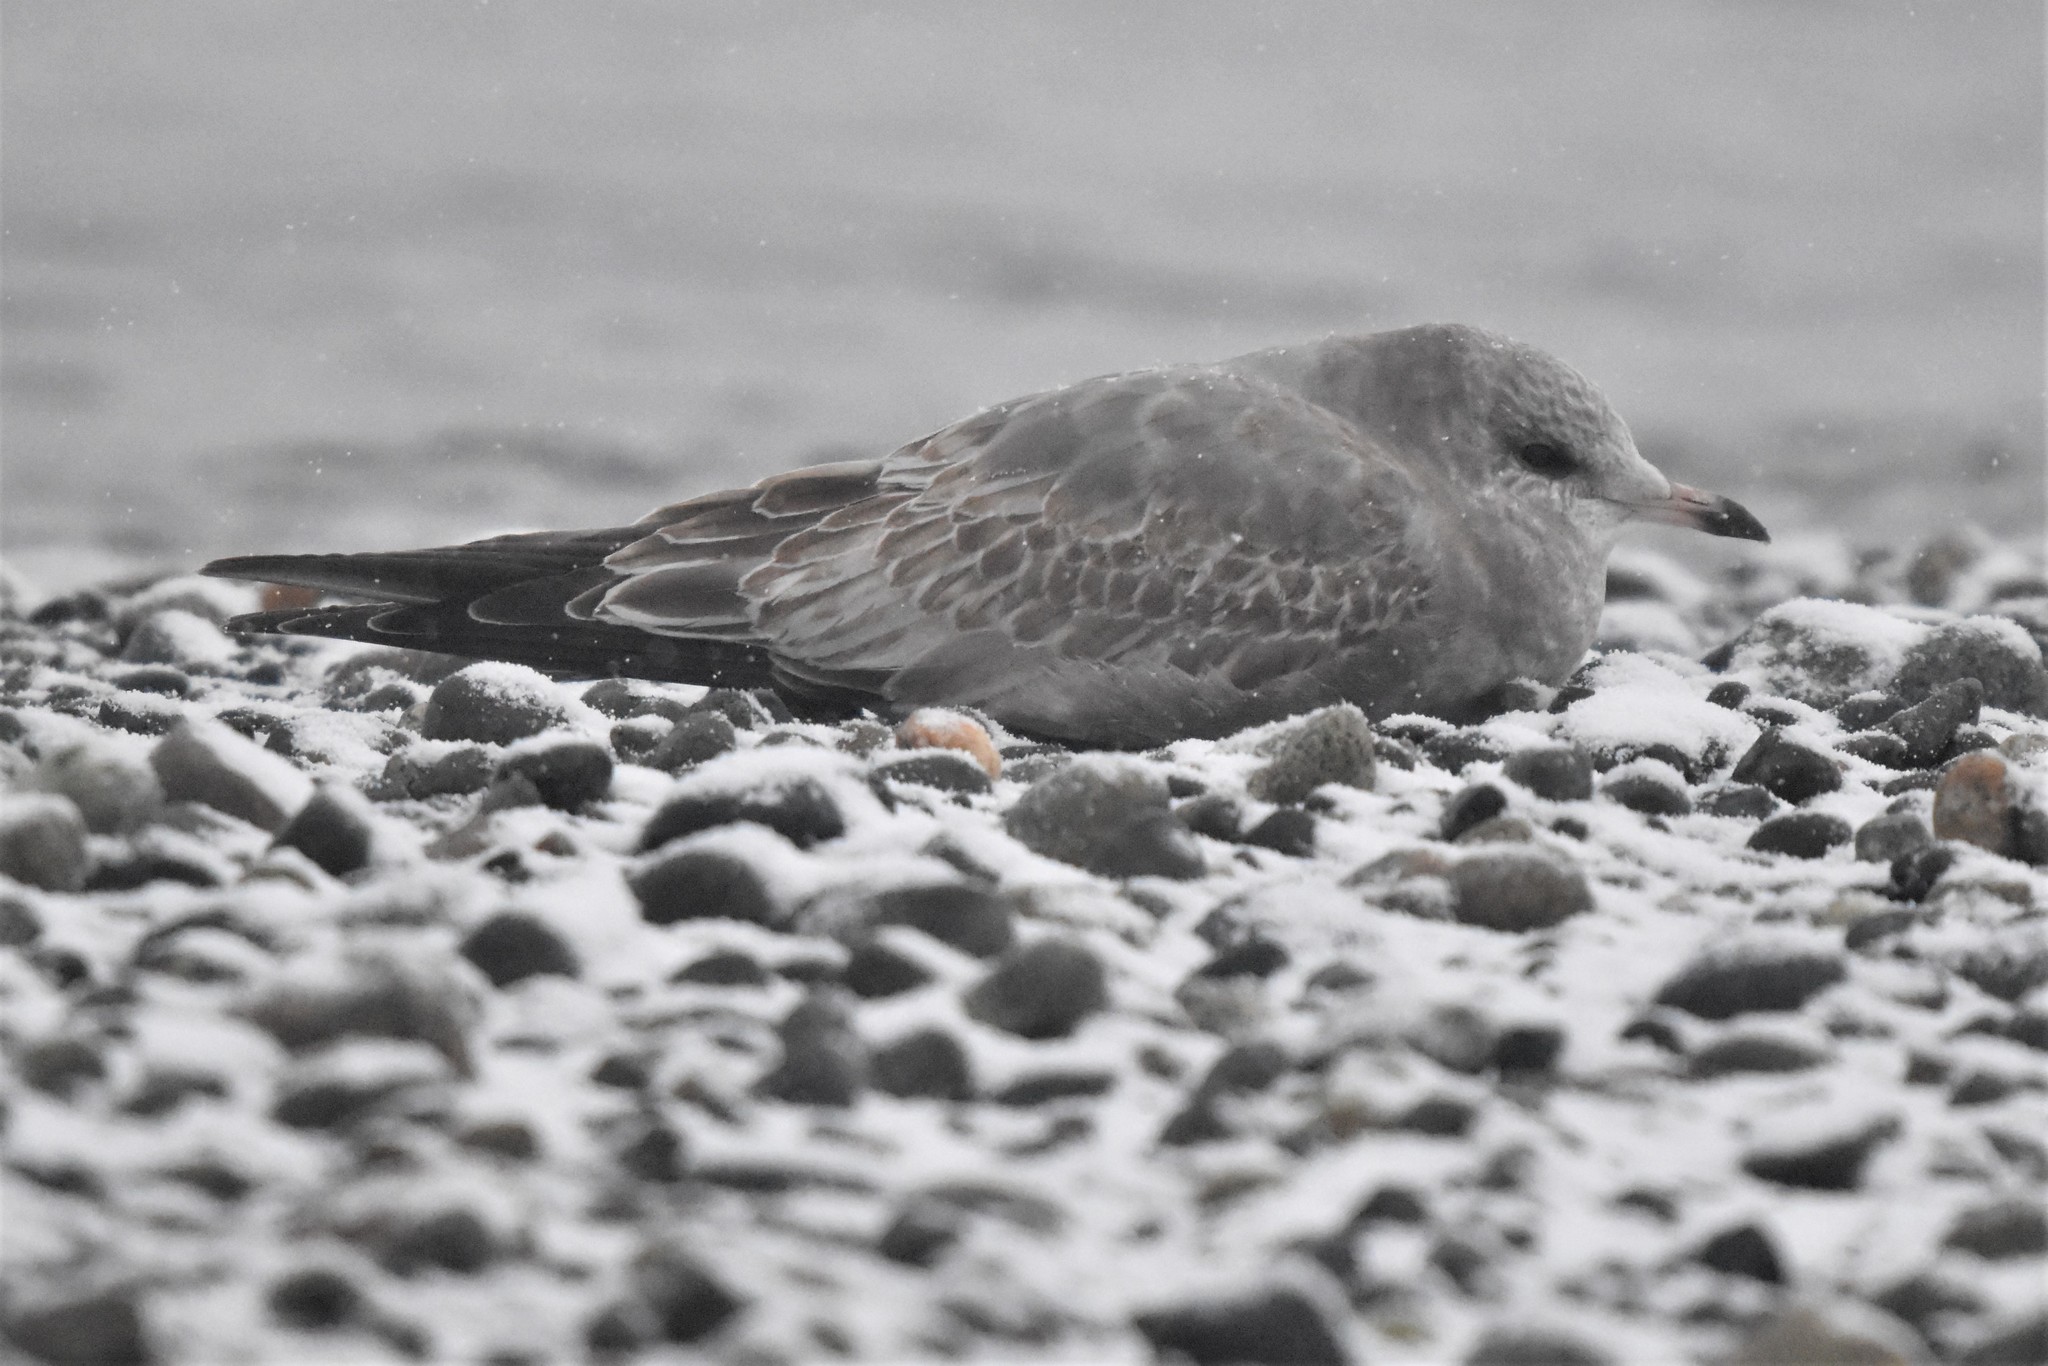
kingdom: Animalia
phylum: Chordata
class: Aves
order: Charadriiformes
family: Laridae
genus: Larus
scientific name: Larus brachyrhynchus
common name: Short-billed gull
